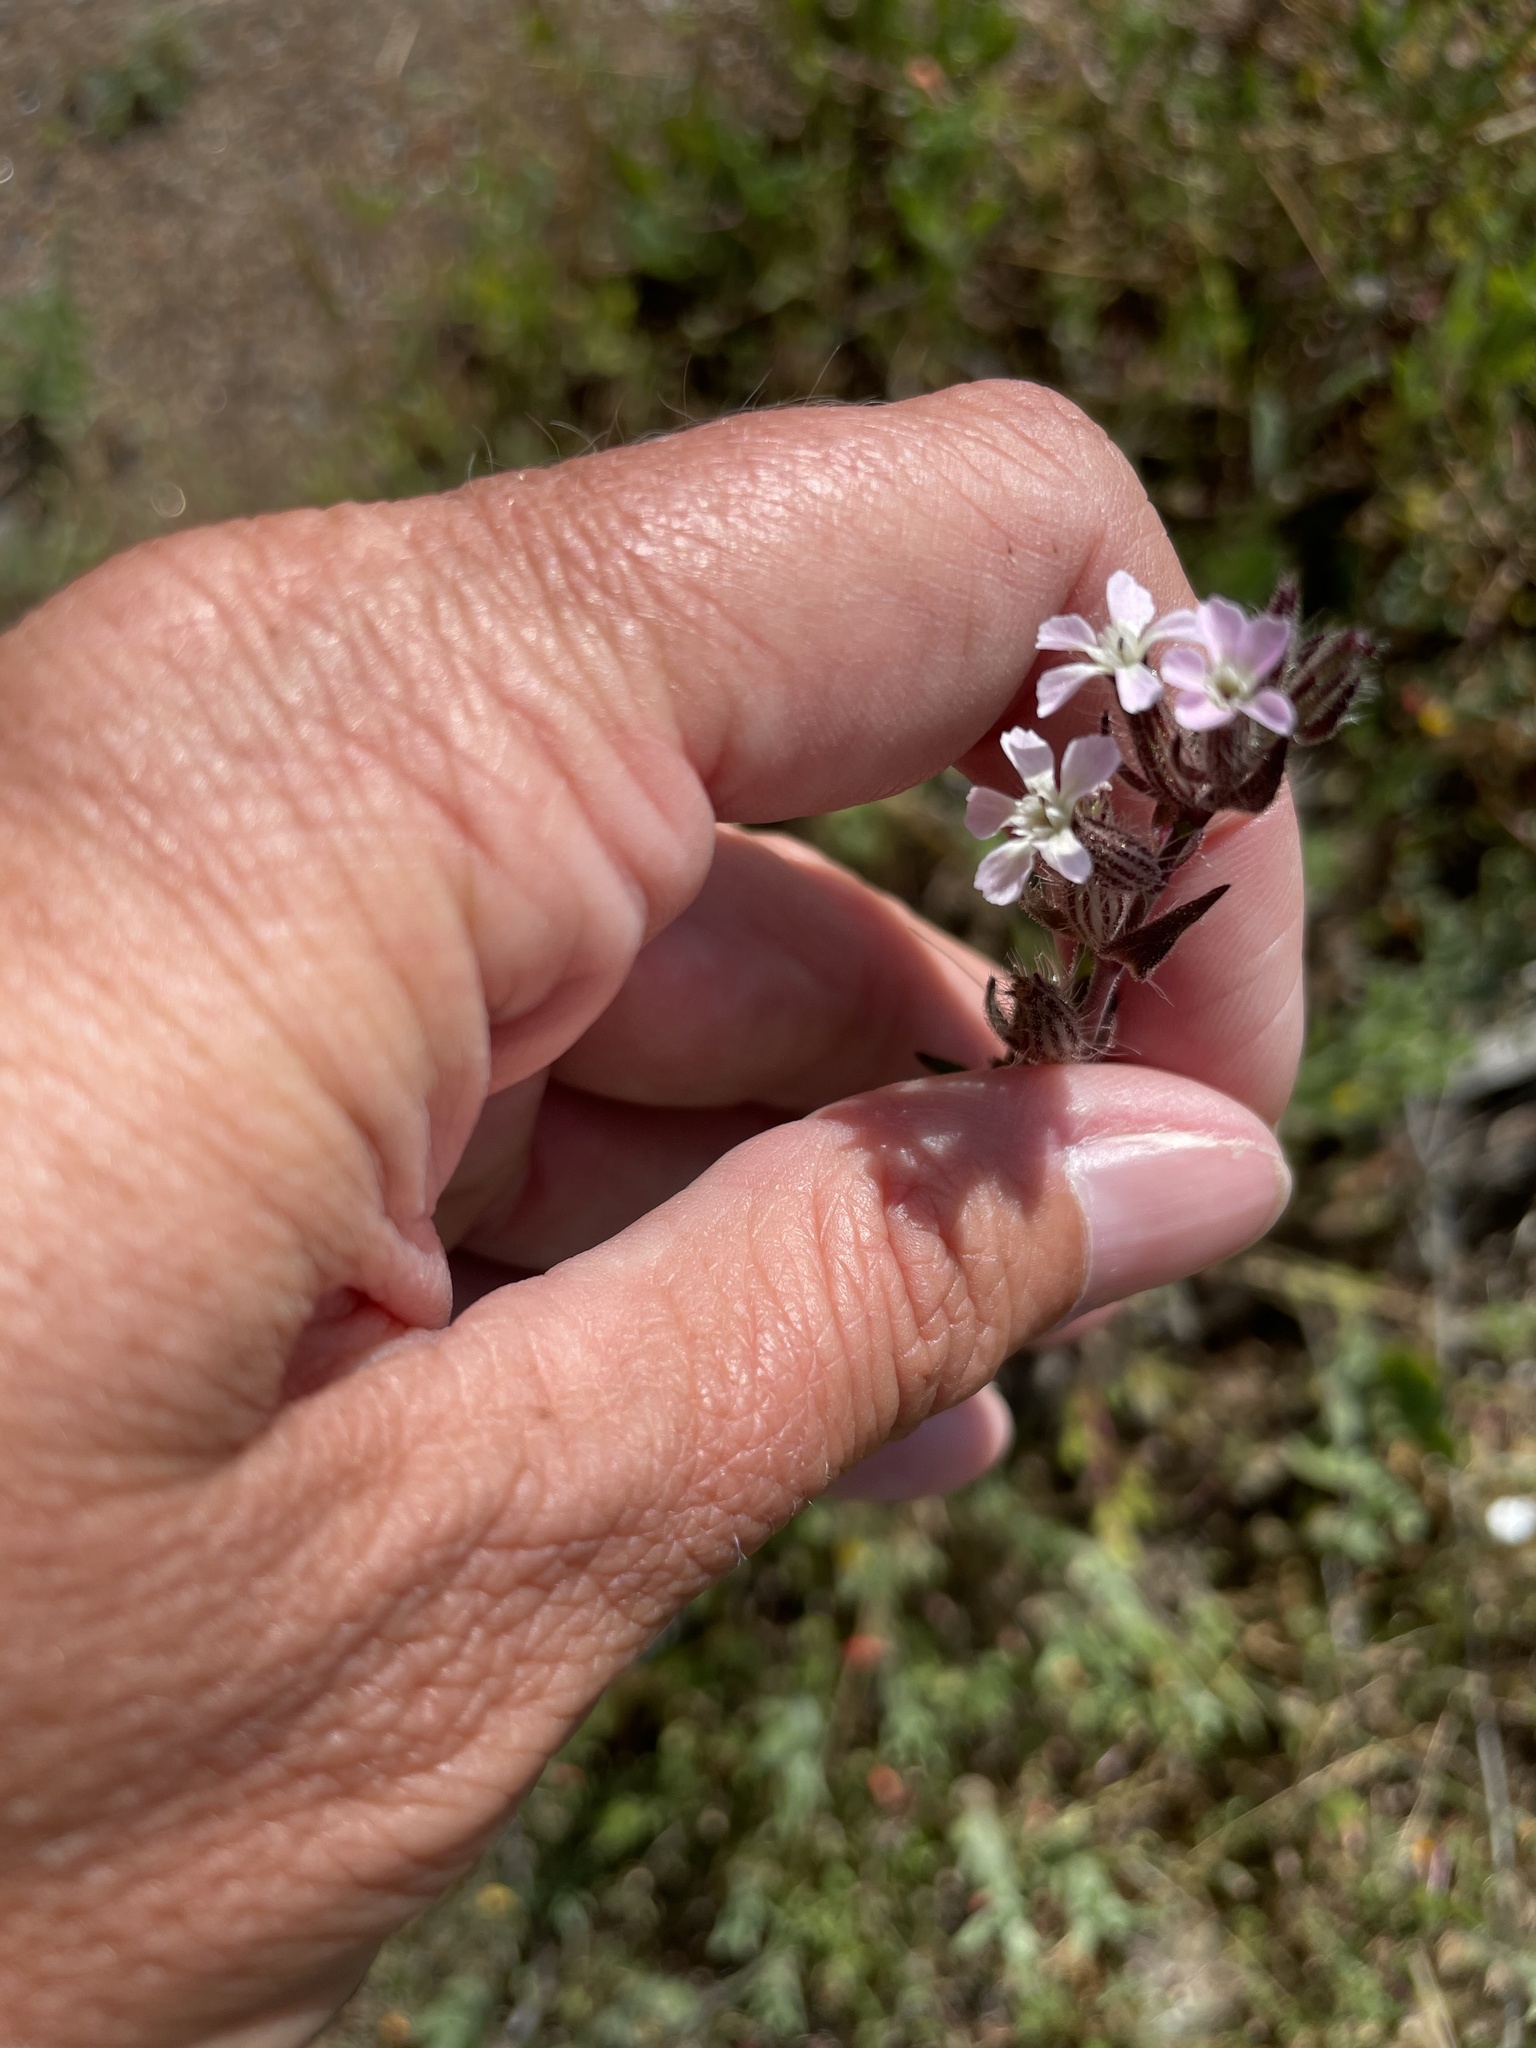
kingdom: Plantae
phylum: Tracheophyta
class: Magnoliopsida
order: Caryophyllales
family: Caryophyllaceae
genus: Silene
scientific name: Silene gallica
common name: Small-flowered catchfly
